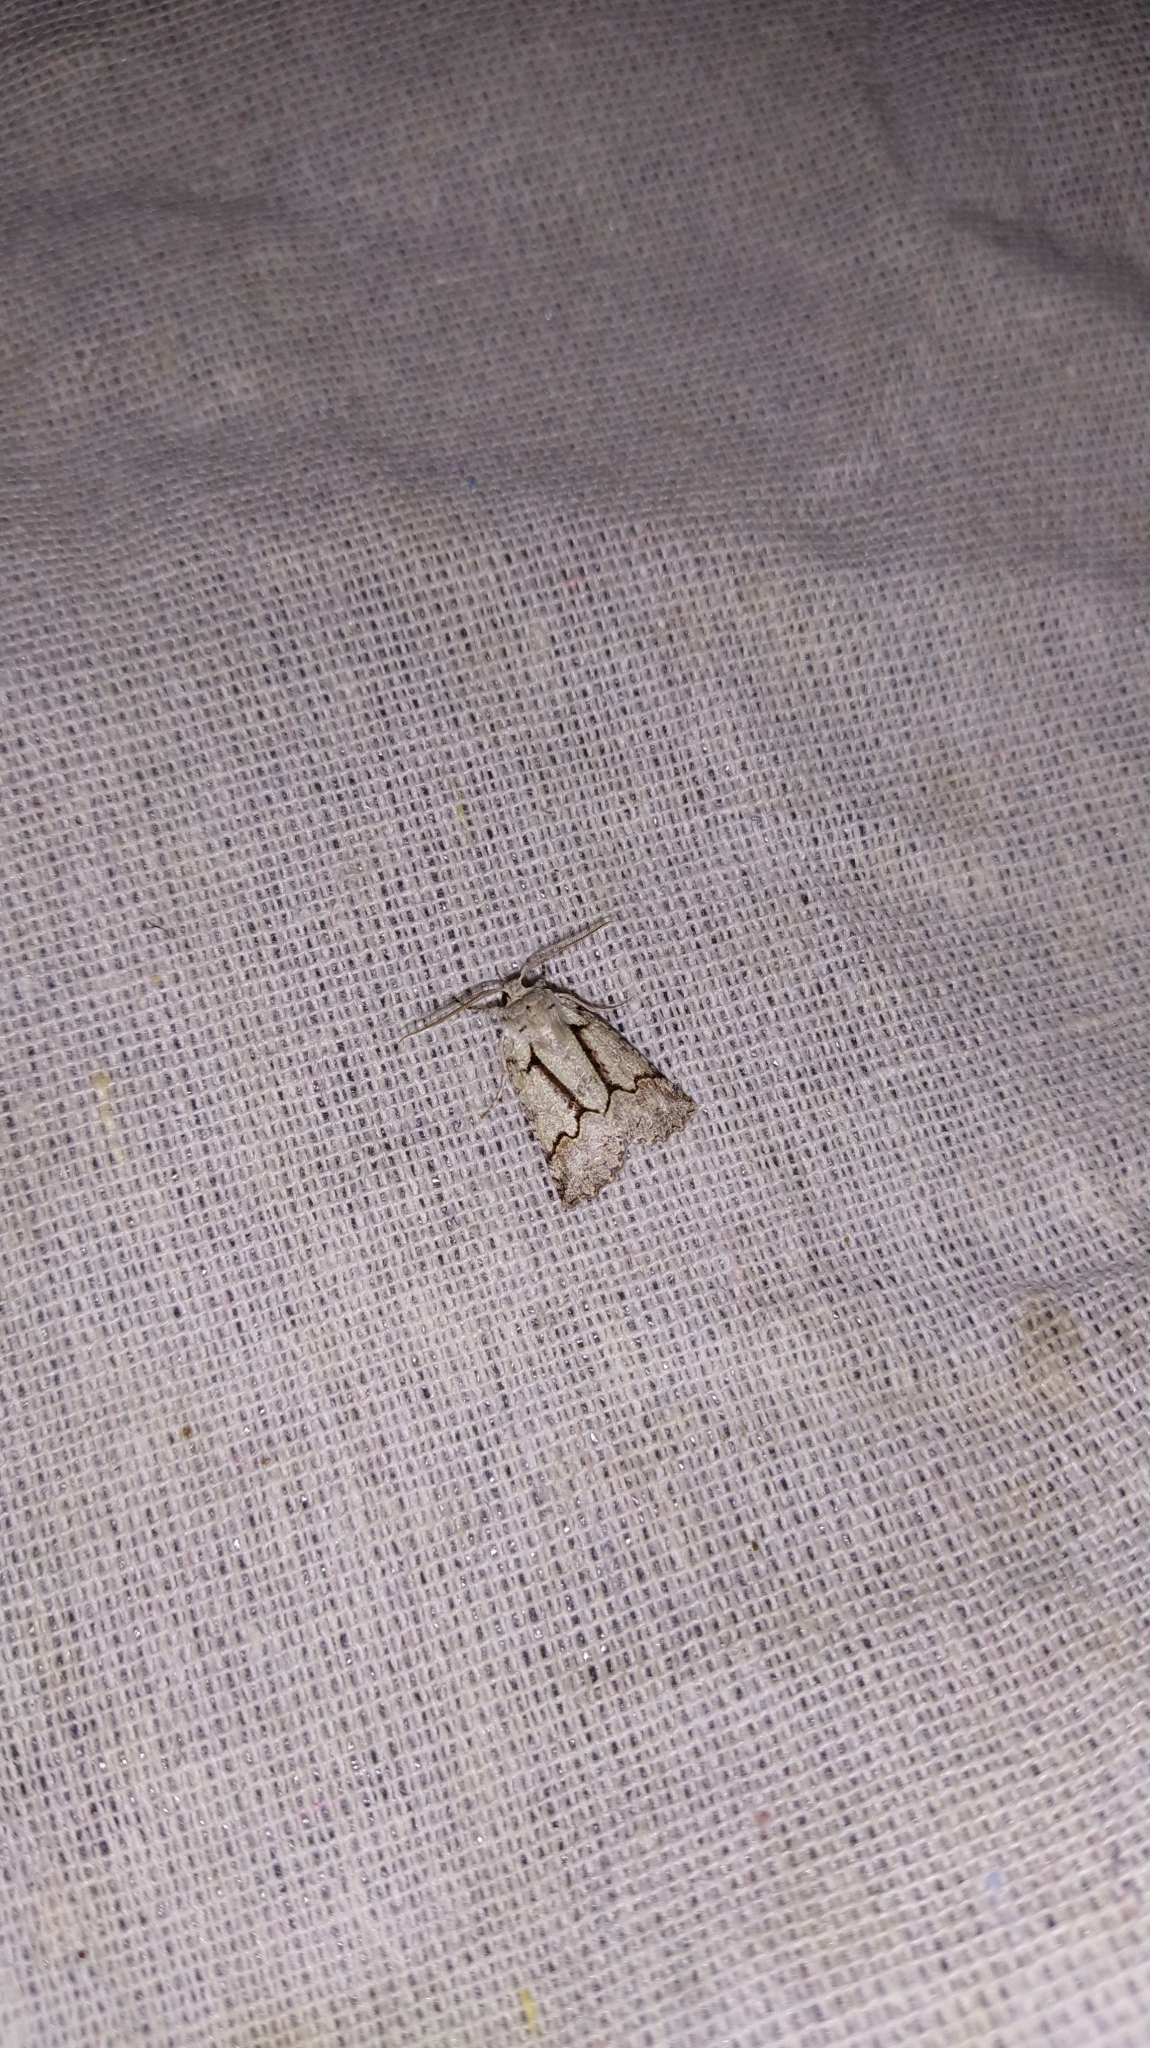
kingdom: Animalia
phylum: Arthropoda
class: Insecta
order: Lepidoptera
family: Geometridae
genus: Declana
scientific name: Declana floccosa
